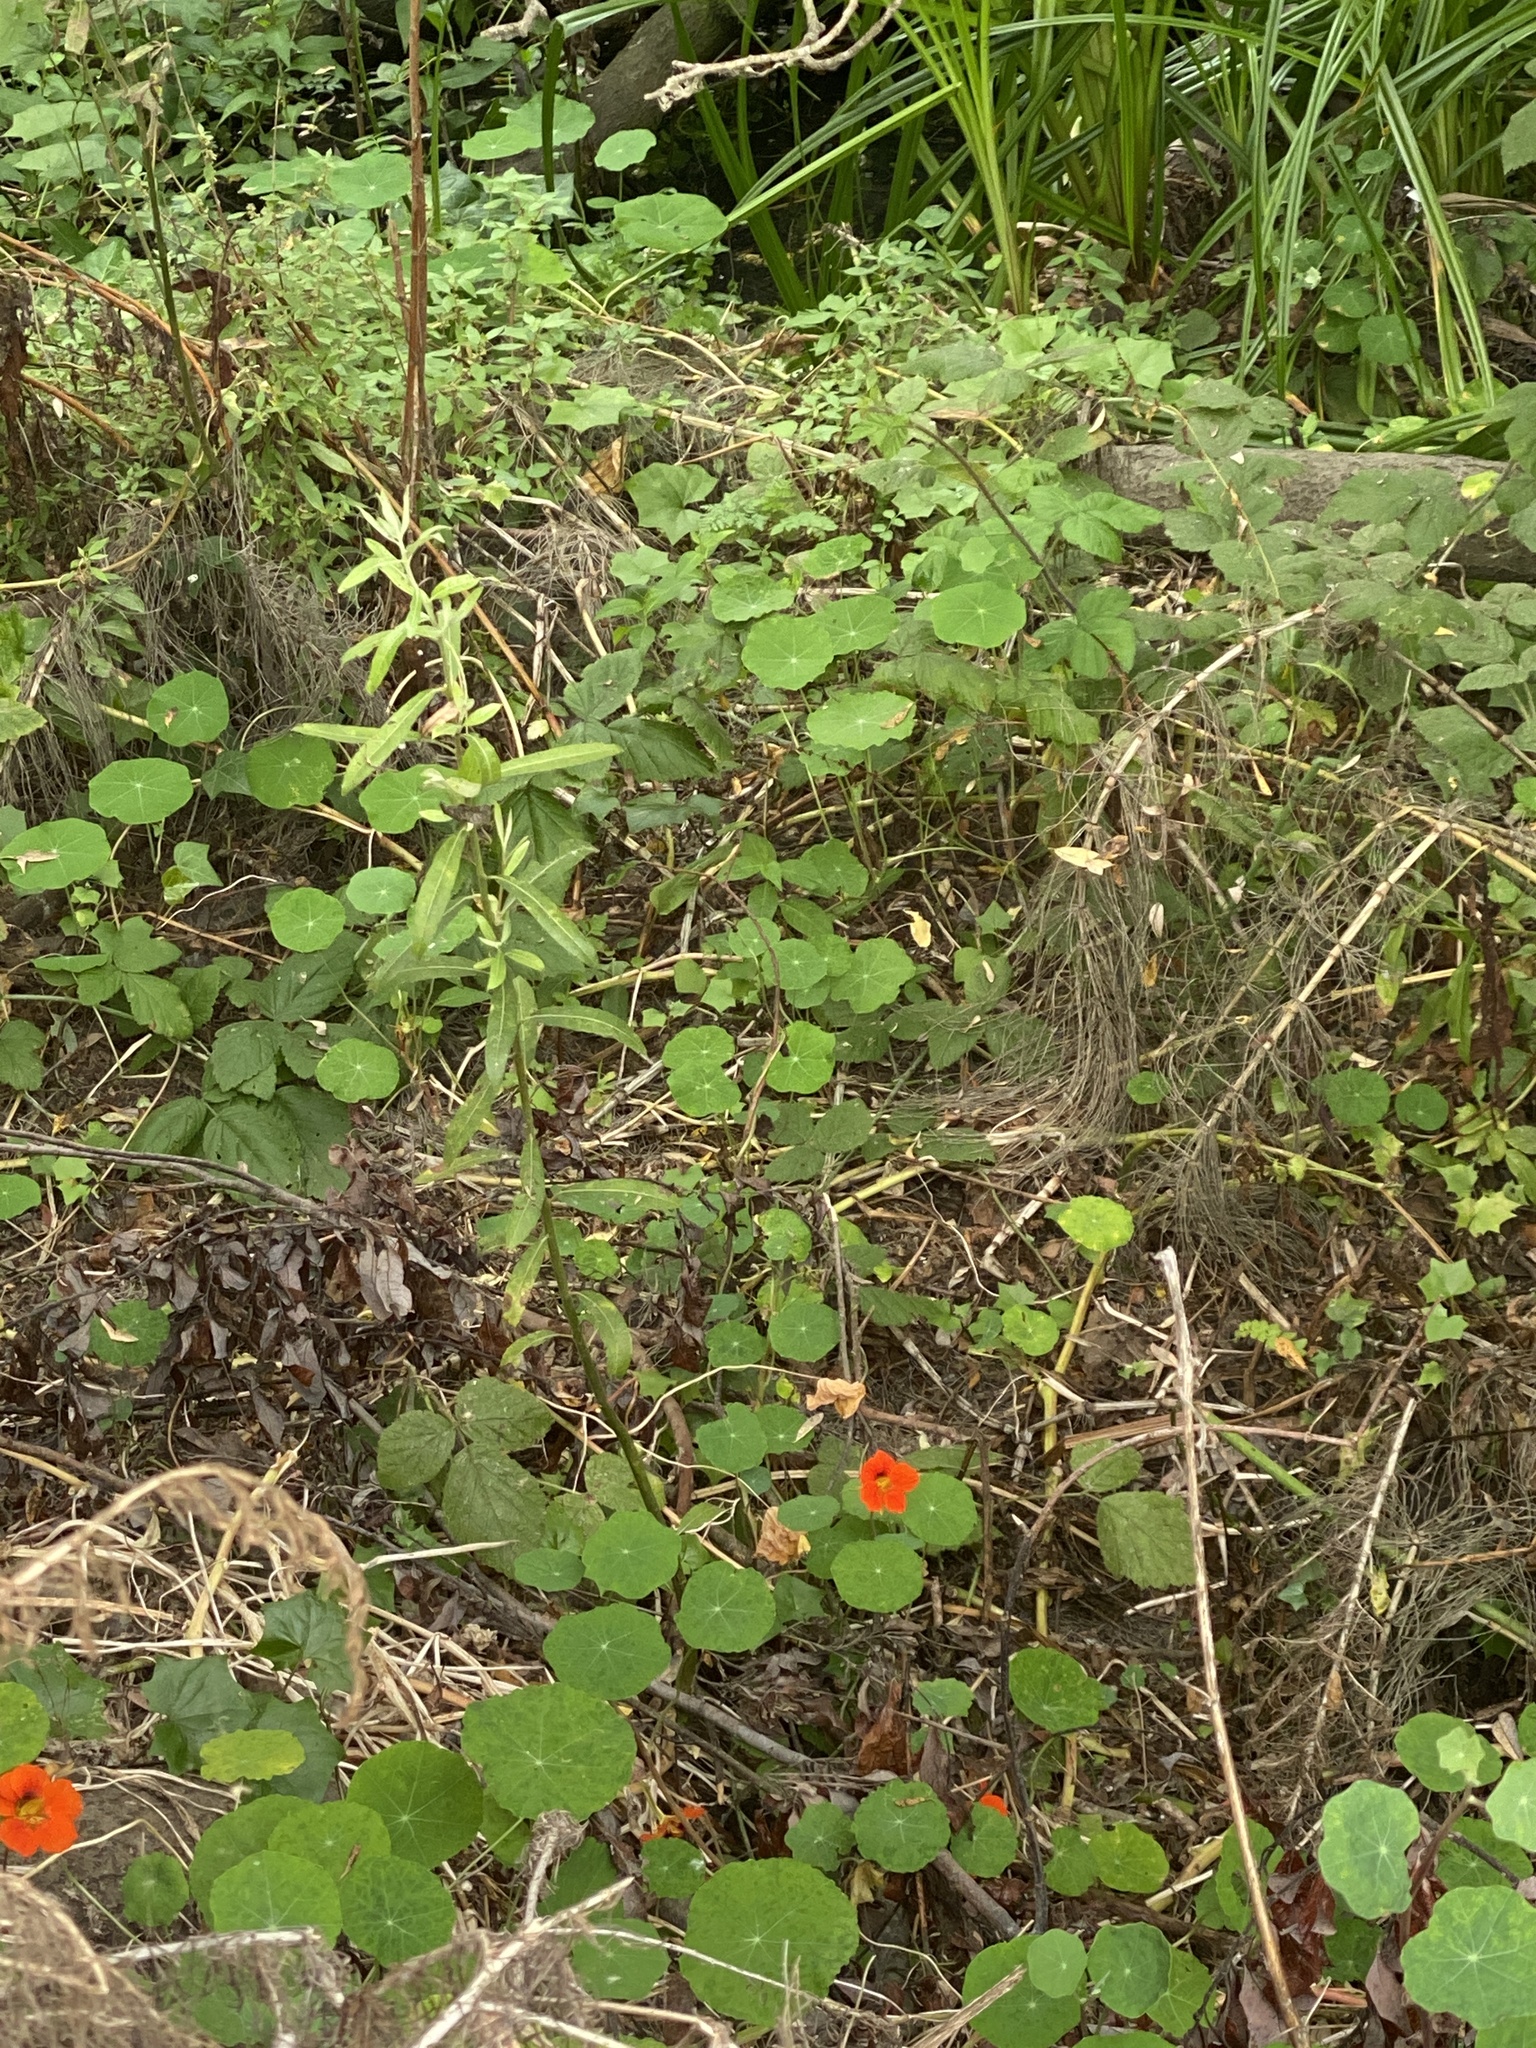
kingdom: Plantae
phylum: Tracheophyta
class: Magnoliopsida
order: Brassicales
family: Tropaeolaceae
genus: Tropaeolum
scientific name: Tropaeolum majus
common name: Nasturtium
